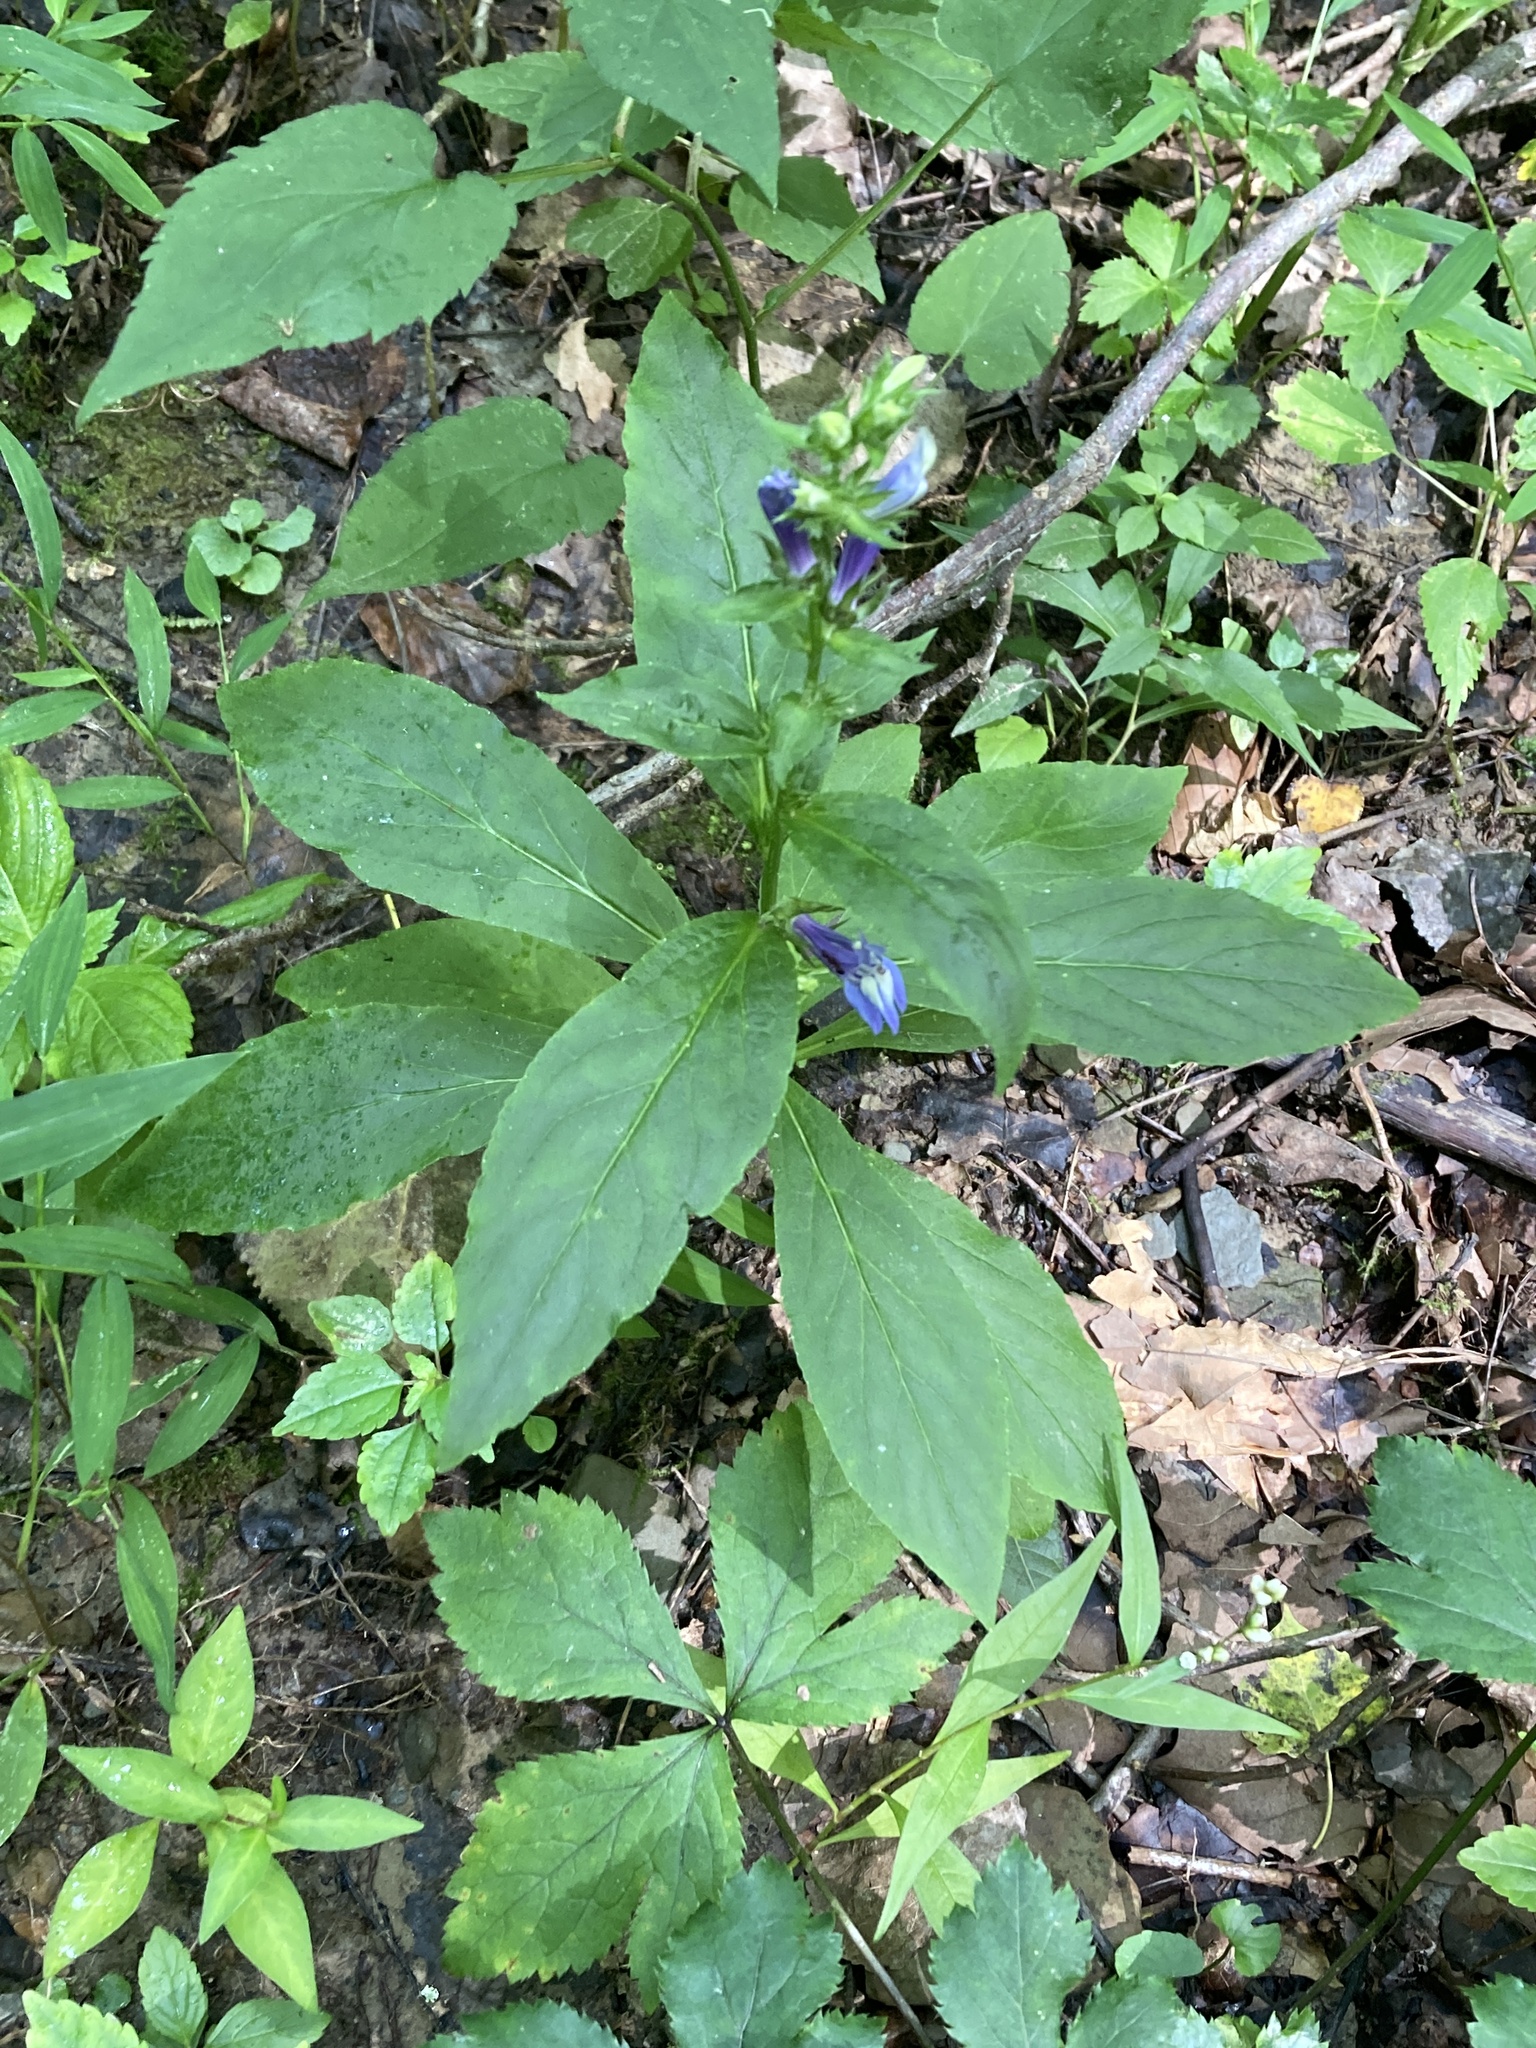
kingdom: Plantae
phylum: Tracheophyta
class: Magnoliopsida
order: Asterales
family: Campanulaceae
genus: Lobelia
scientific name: Lobelia siphilitica
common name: Great lobelia
